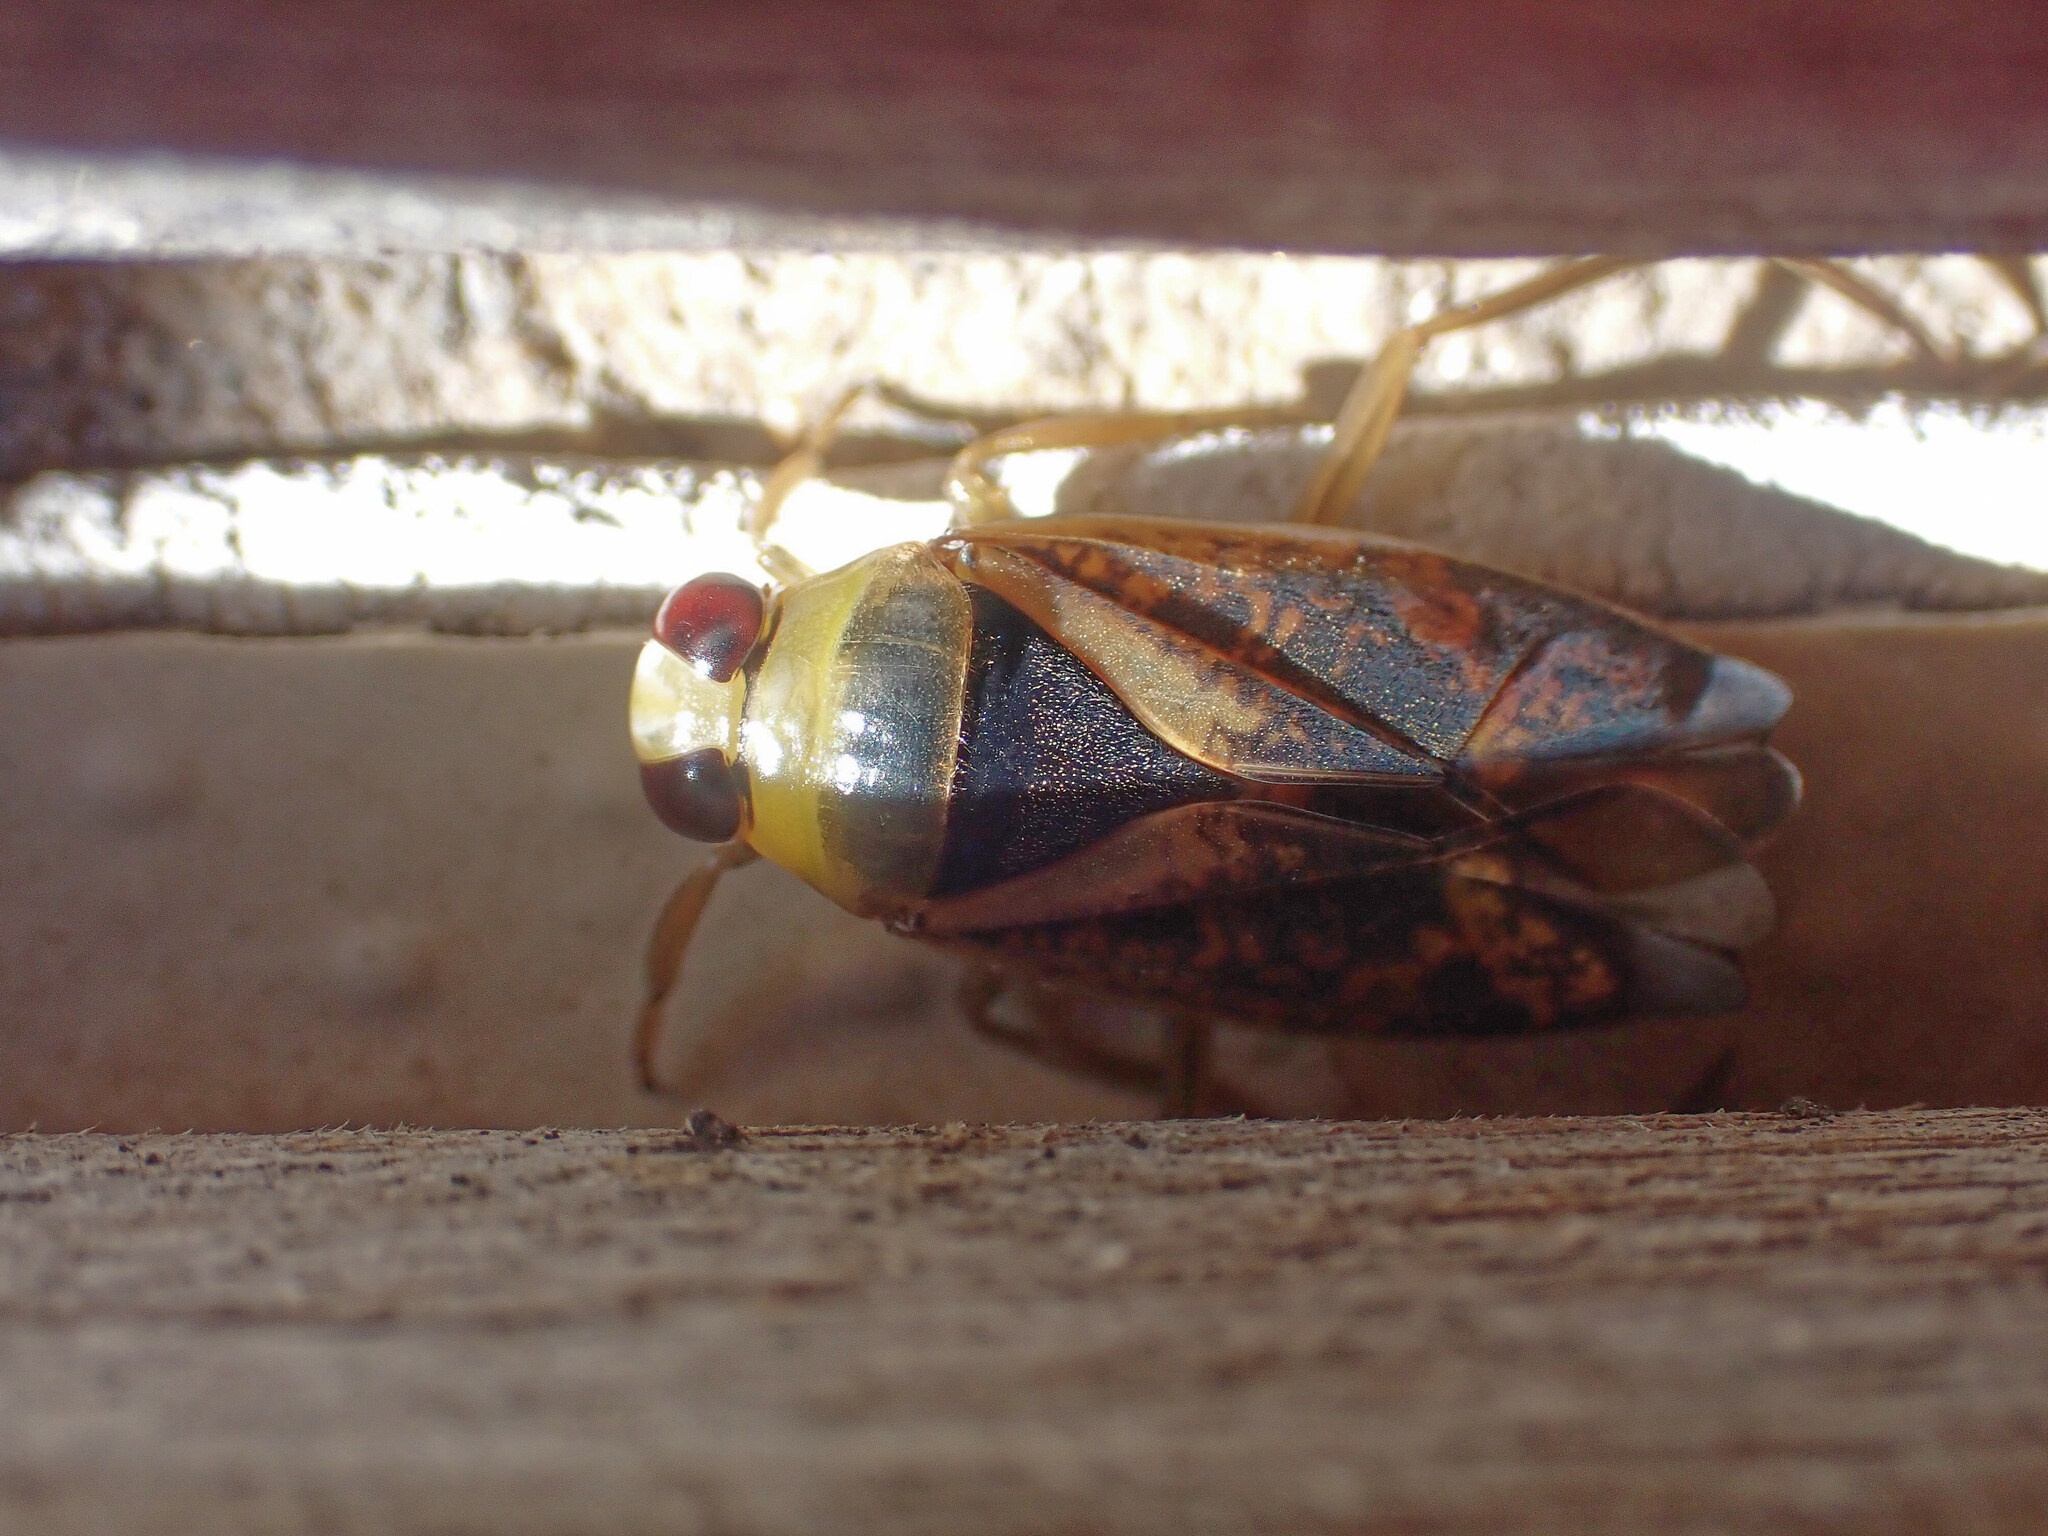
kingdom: Animalia
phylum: Arthropoda
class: Insecta
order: Hemiptera
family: Notonectidae
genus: Notonecta
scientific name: Notonecta maculata
